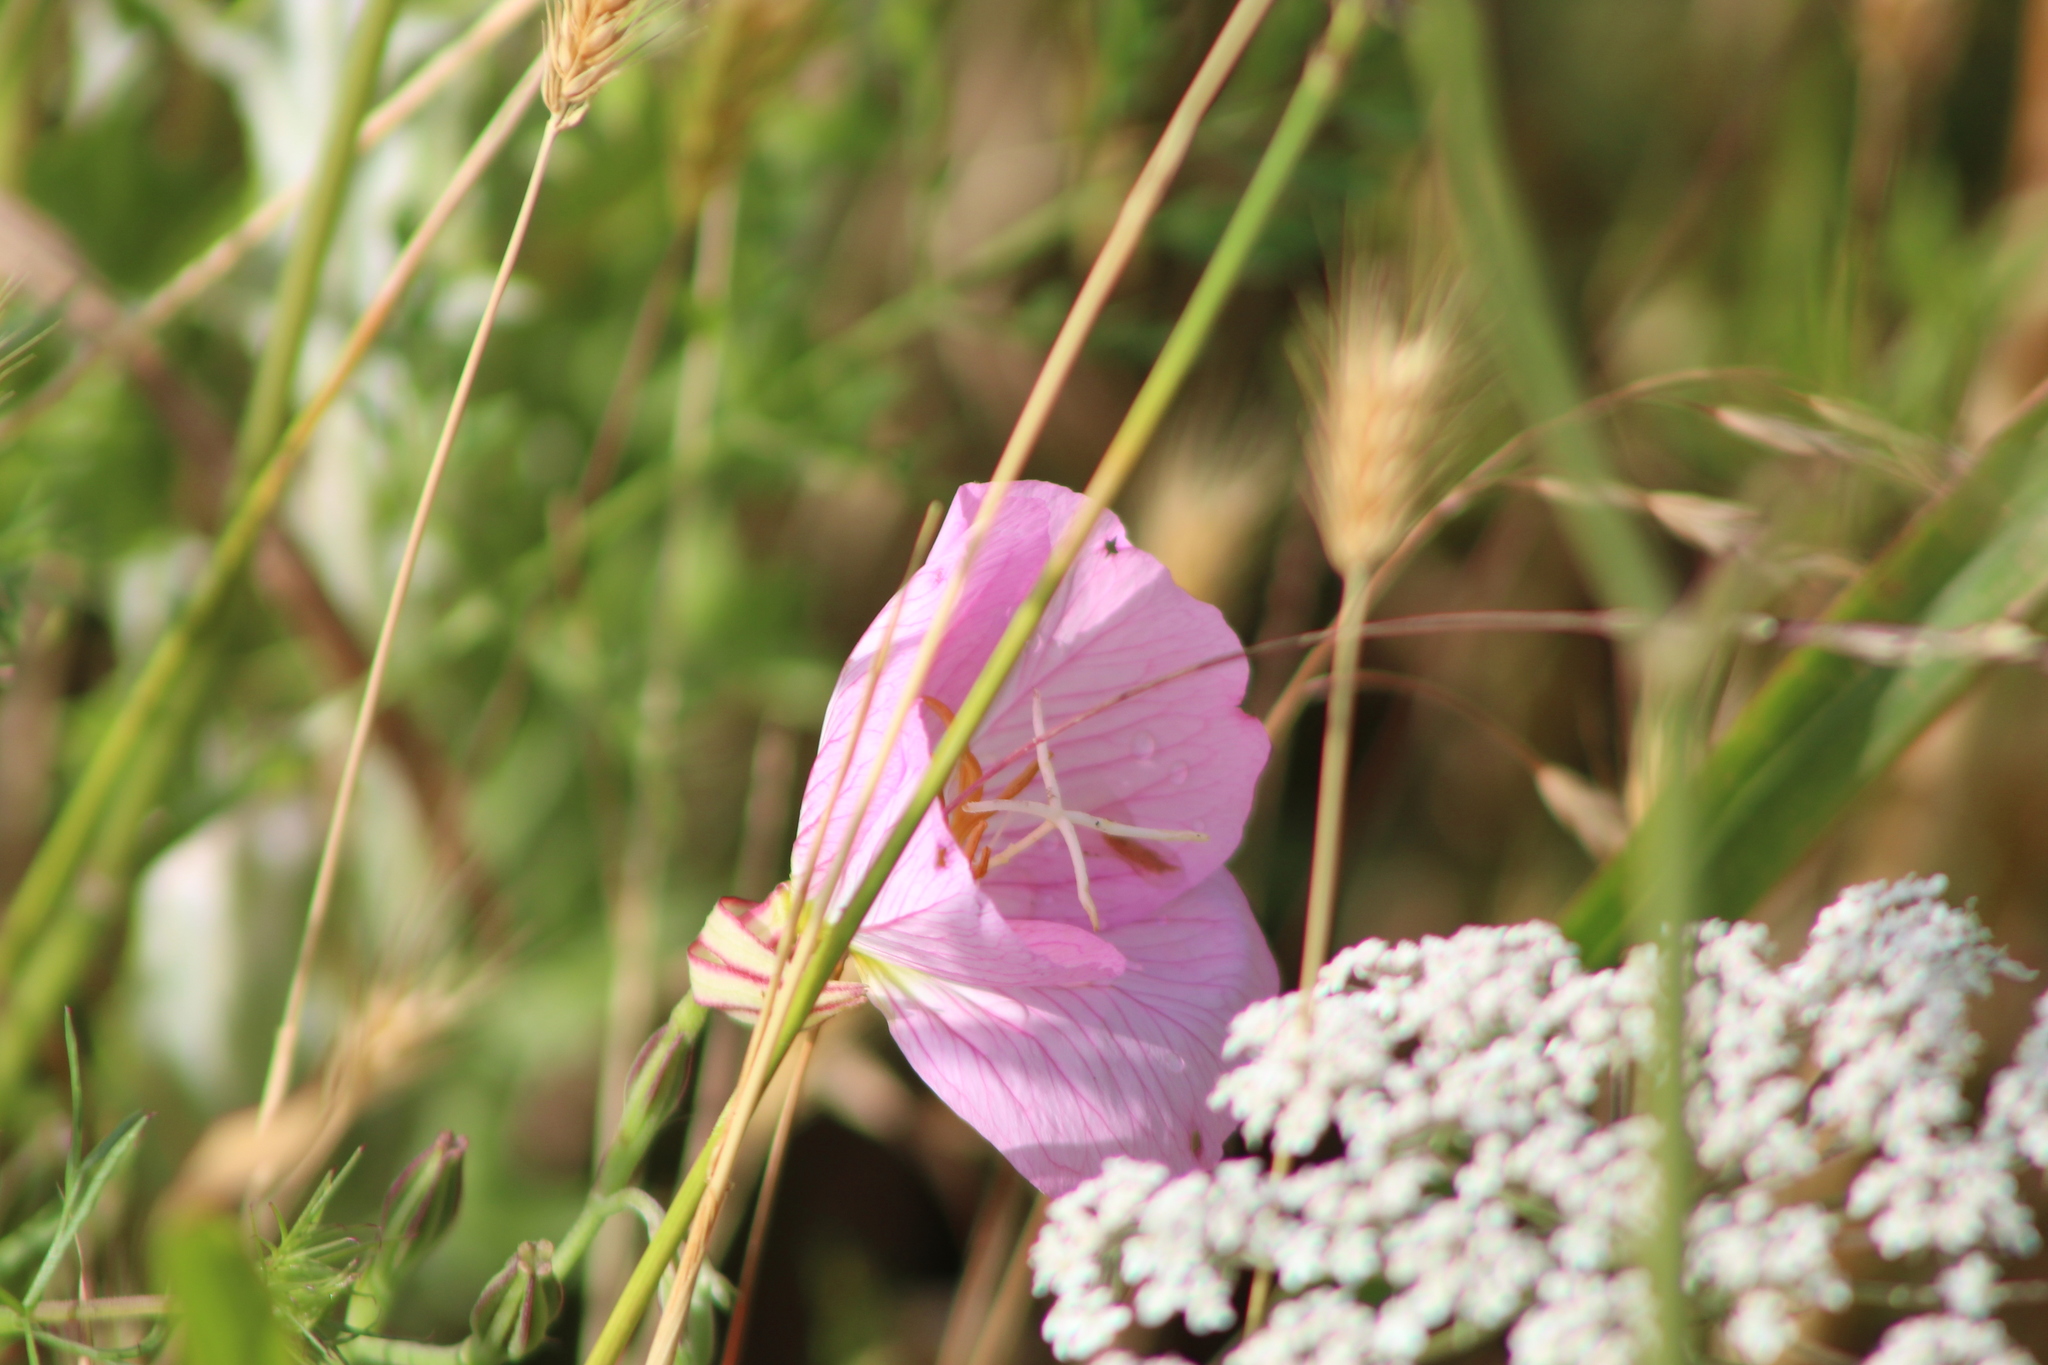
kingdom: Plantae
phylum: Tracheophyta
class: Magnoliopsida
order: Myrtales
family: Onagraceae
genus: Oenothera
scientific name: Oenothera speciosa
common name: White evening-primrose
